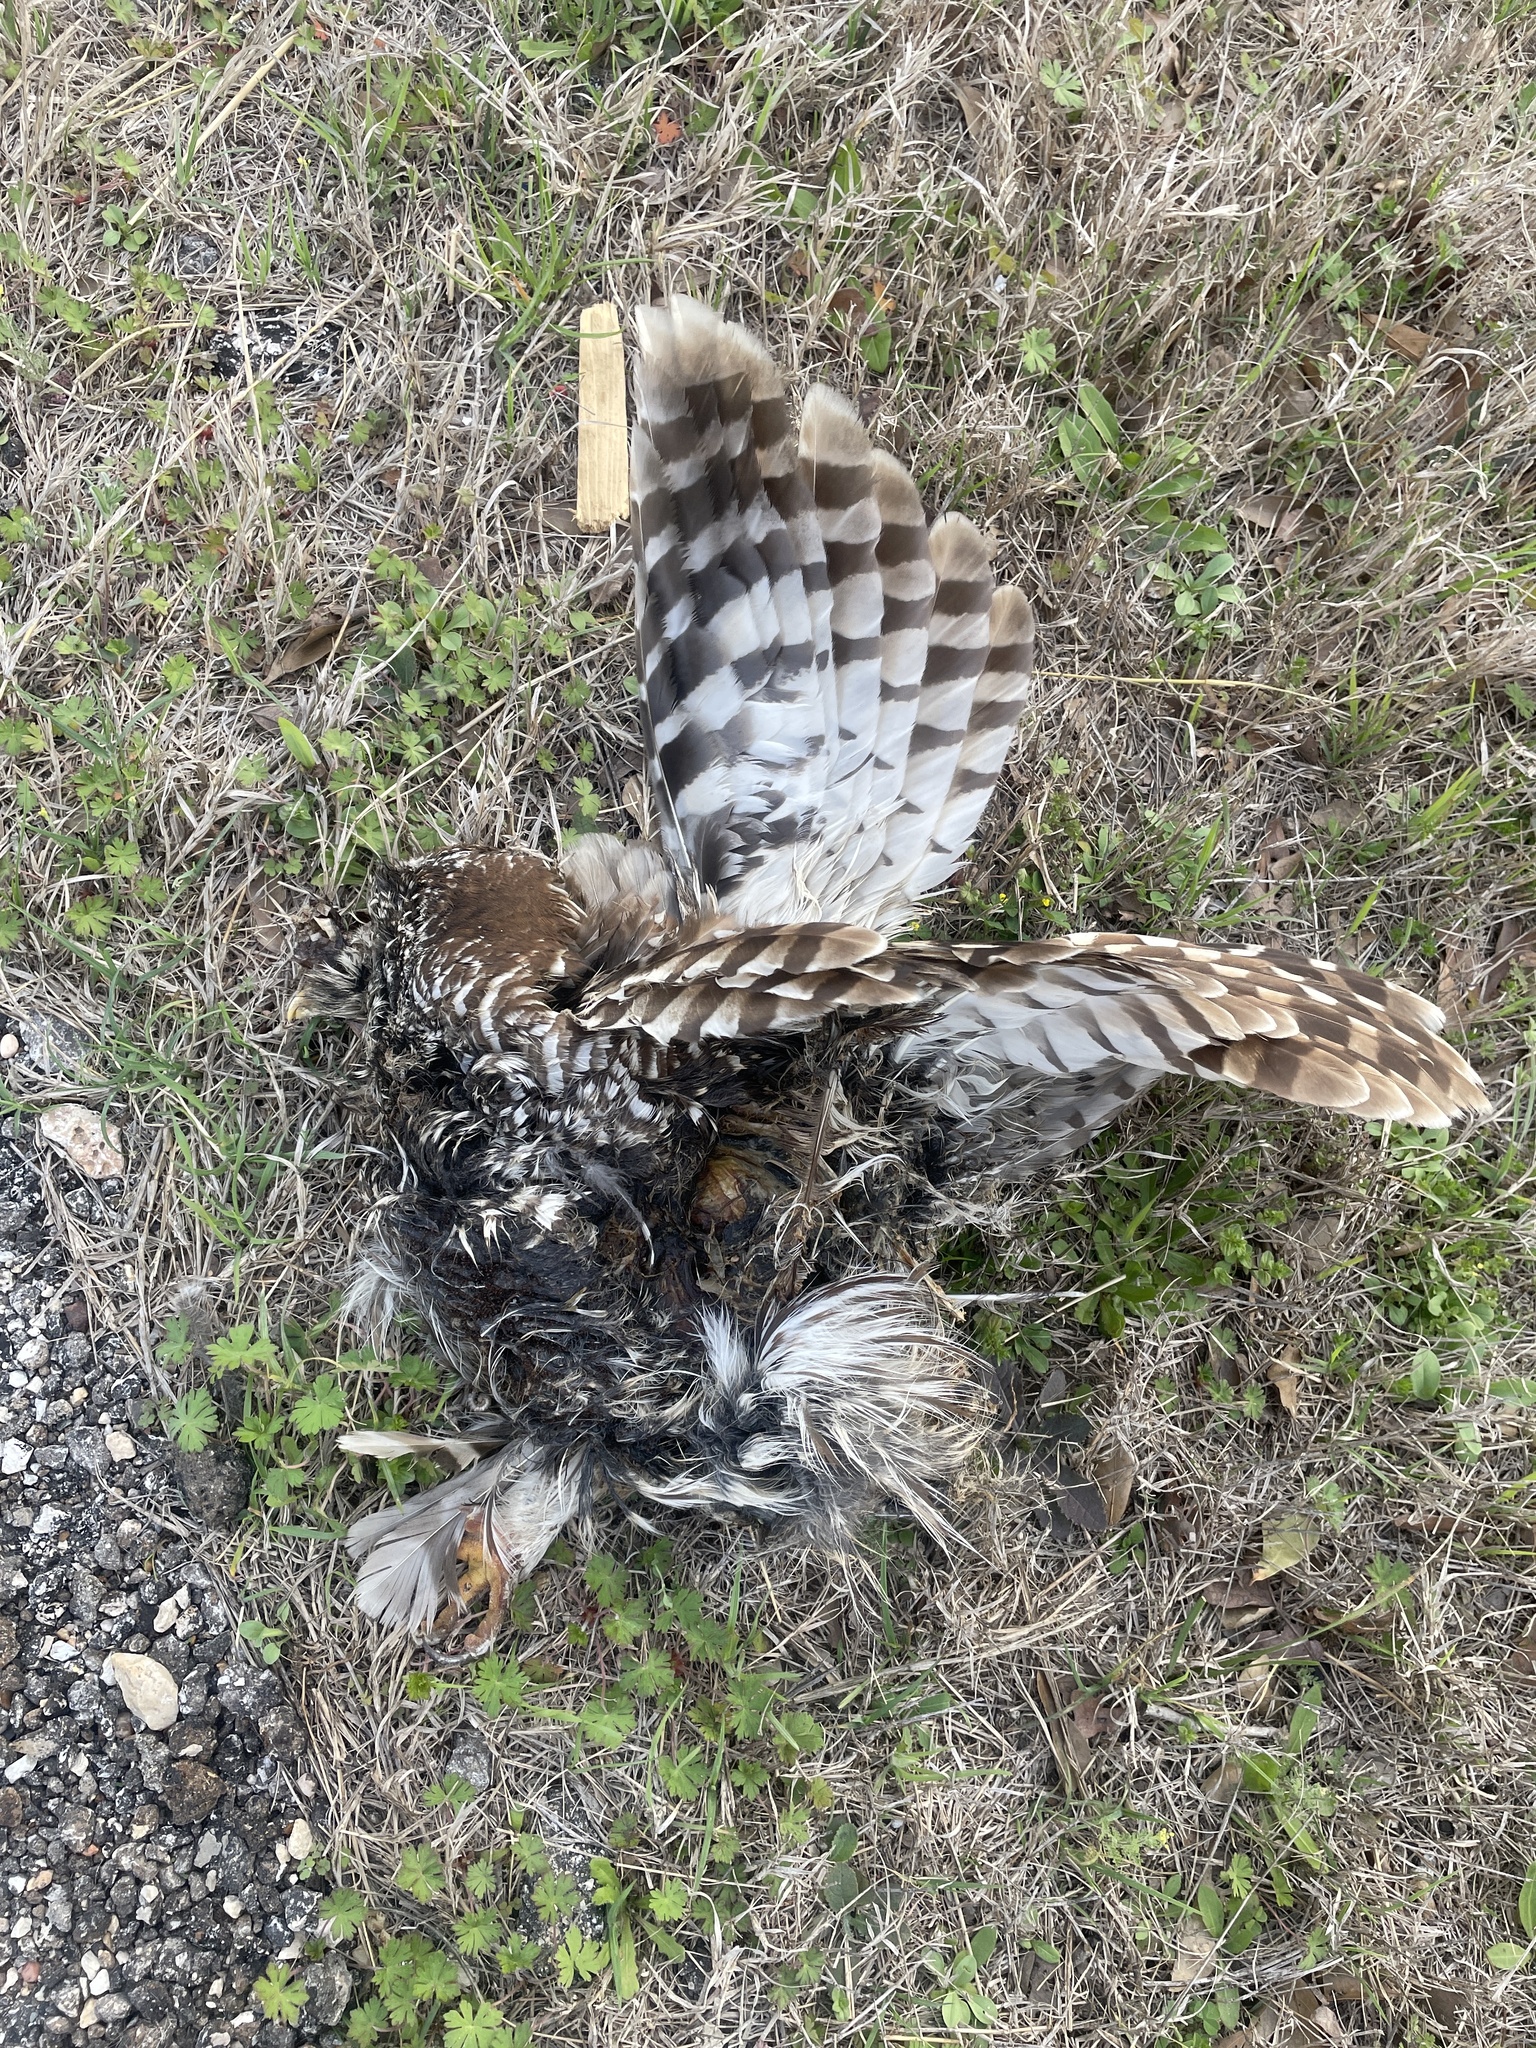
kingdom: Animalia
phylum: Chordata
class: Aves
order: Strigiformes
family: Strigidae
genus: Strix
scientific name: Strix varia
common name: Barred owl
